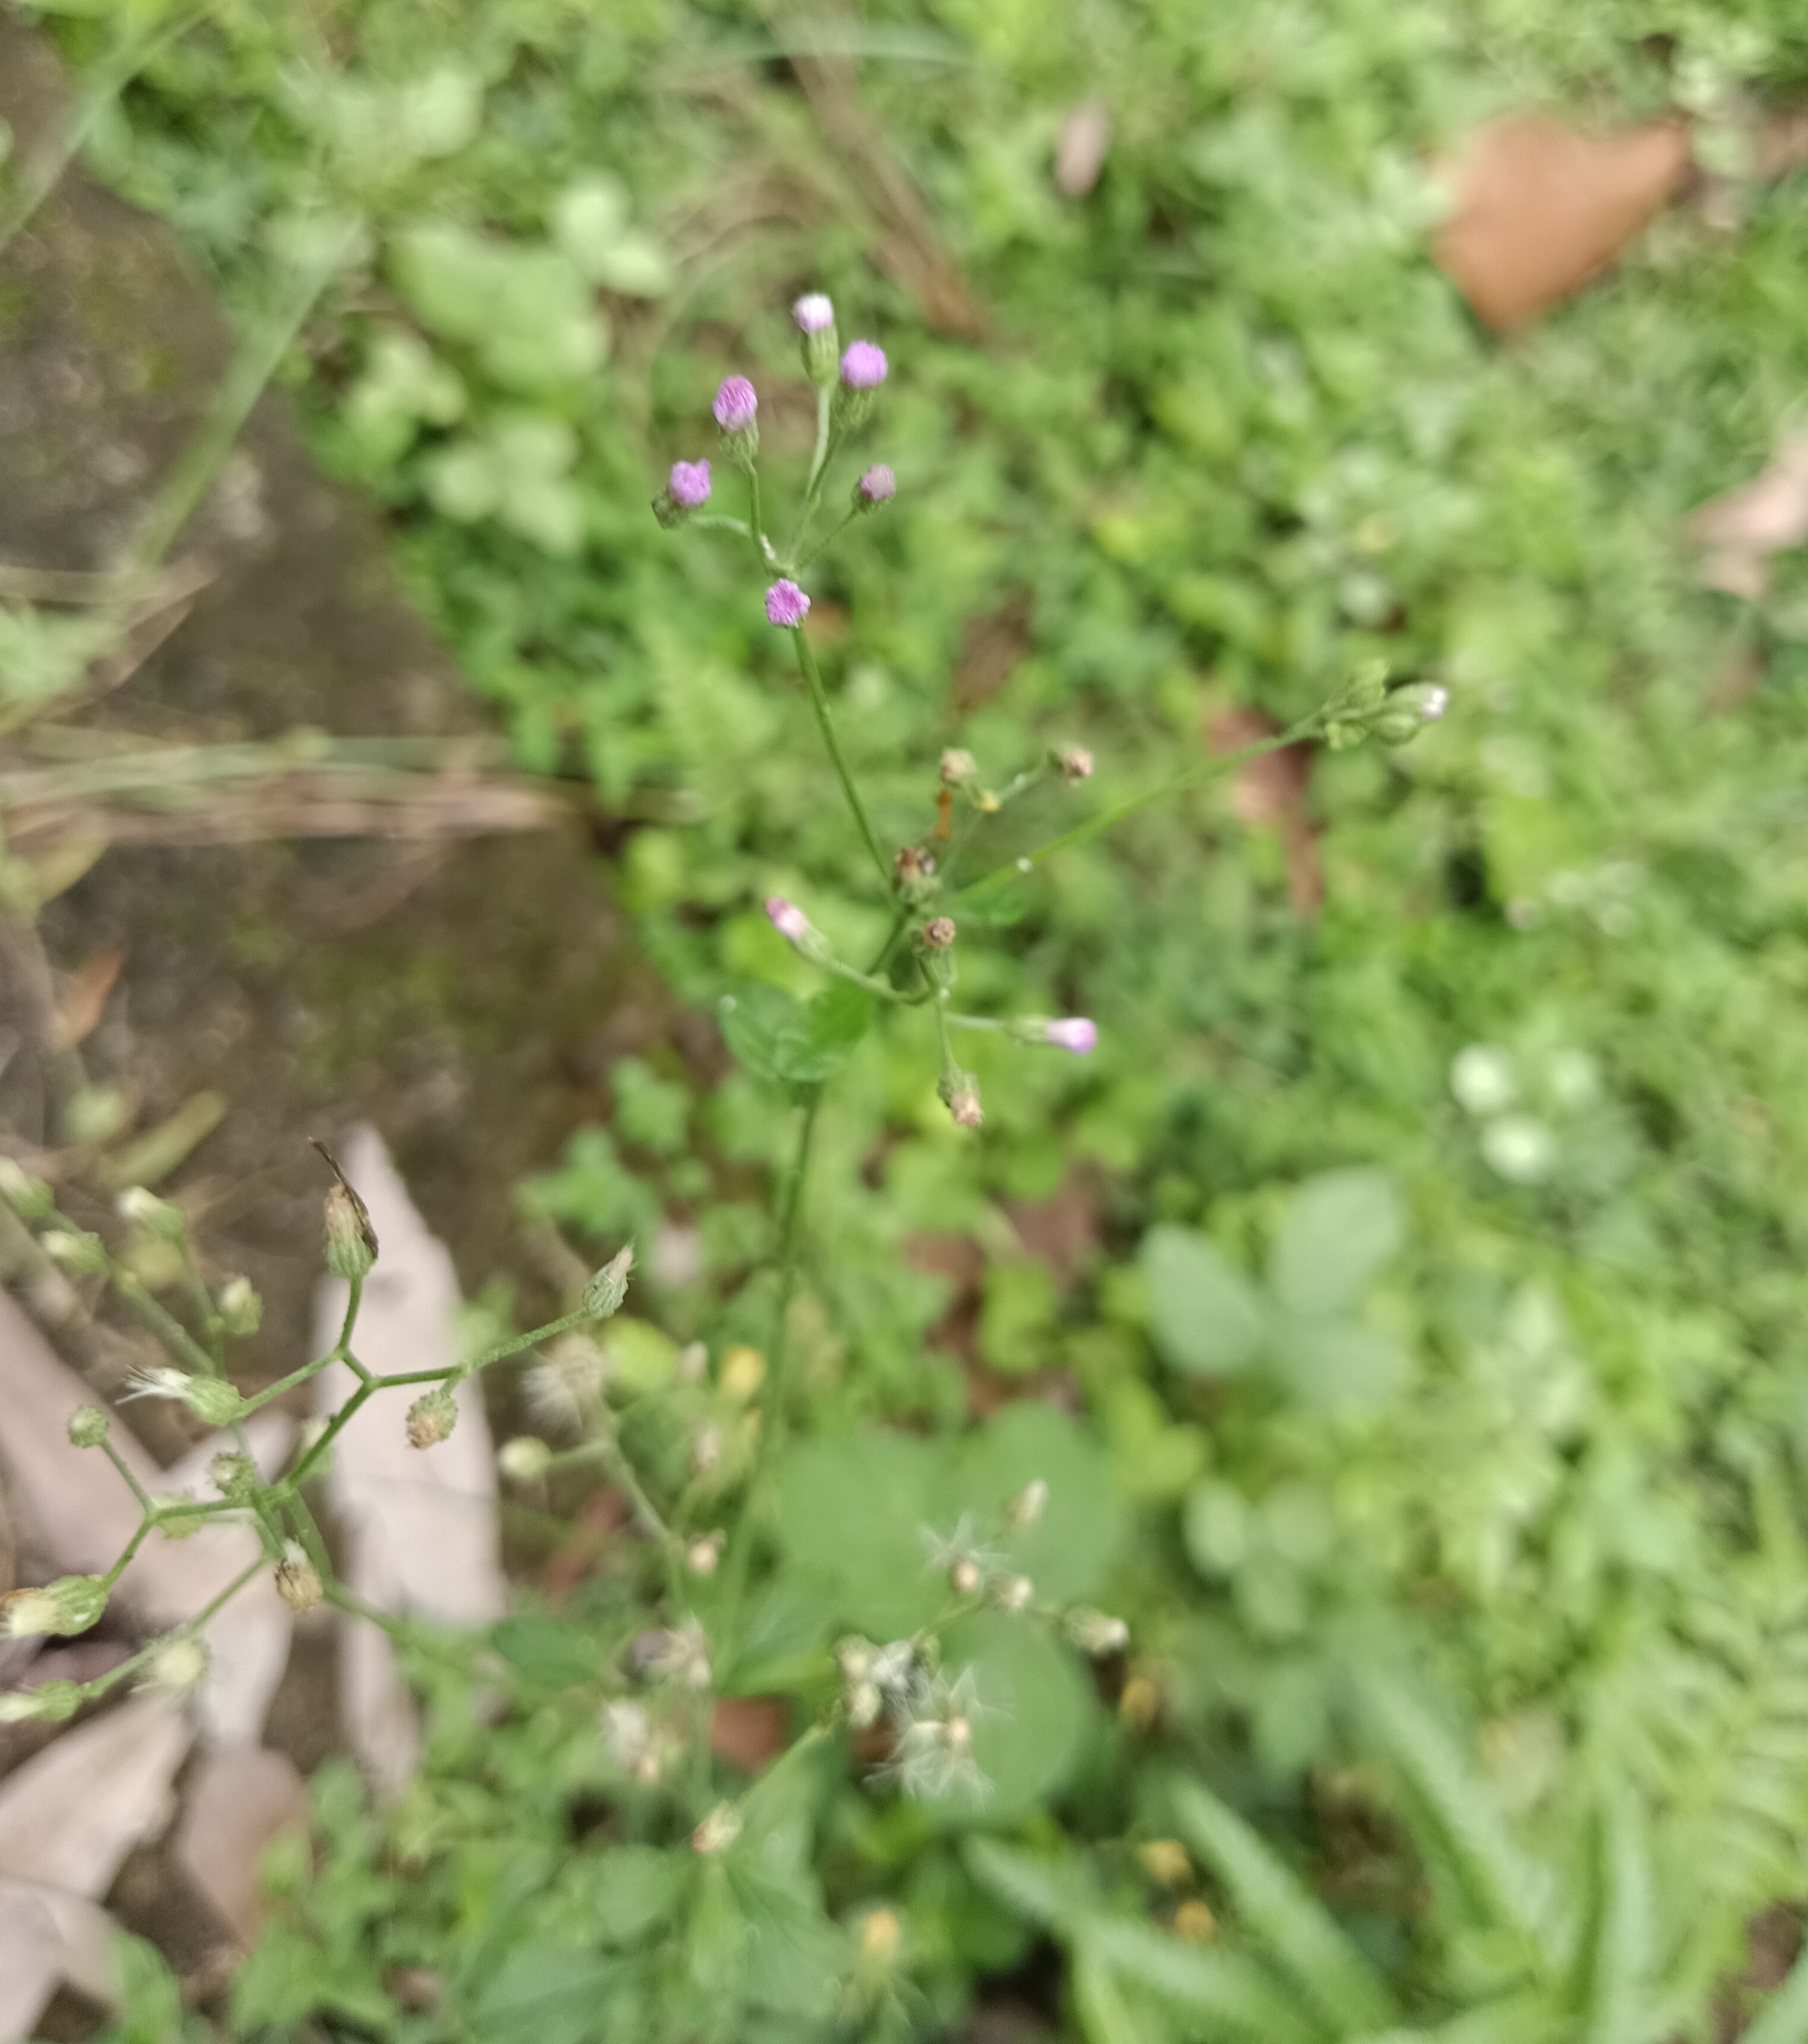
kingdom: Plantae
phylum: Tracheophyta
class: Magnoliopsida
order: Asterales
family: Asteraceae
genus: Cyanthillium
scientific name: Cyanthillium cinereum
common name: Little ironweed
